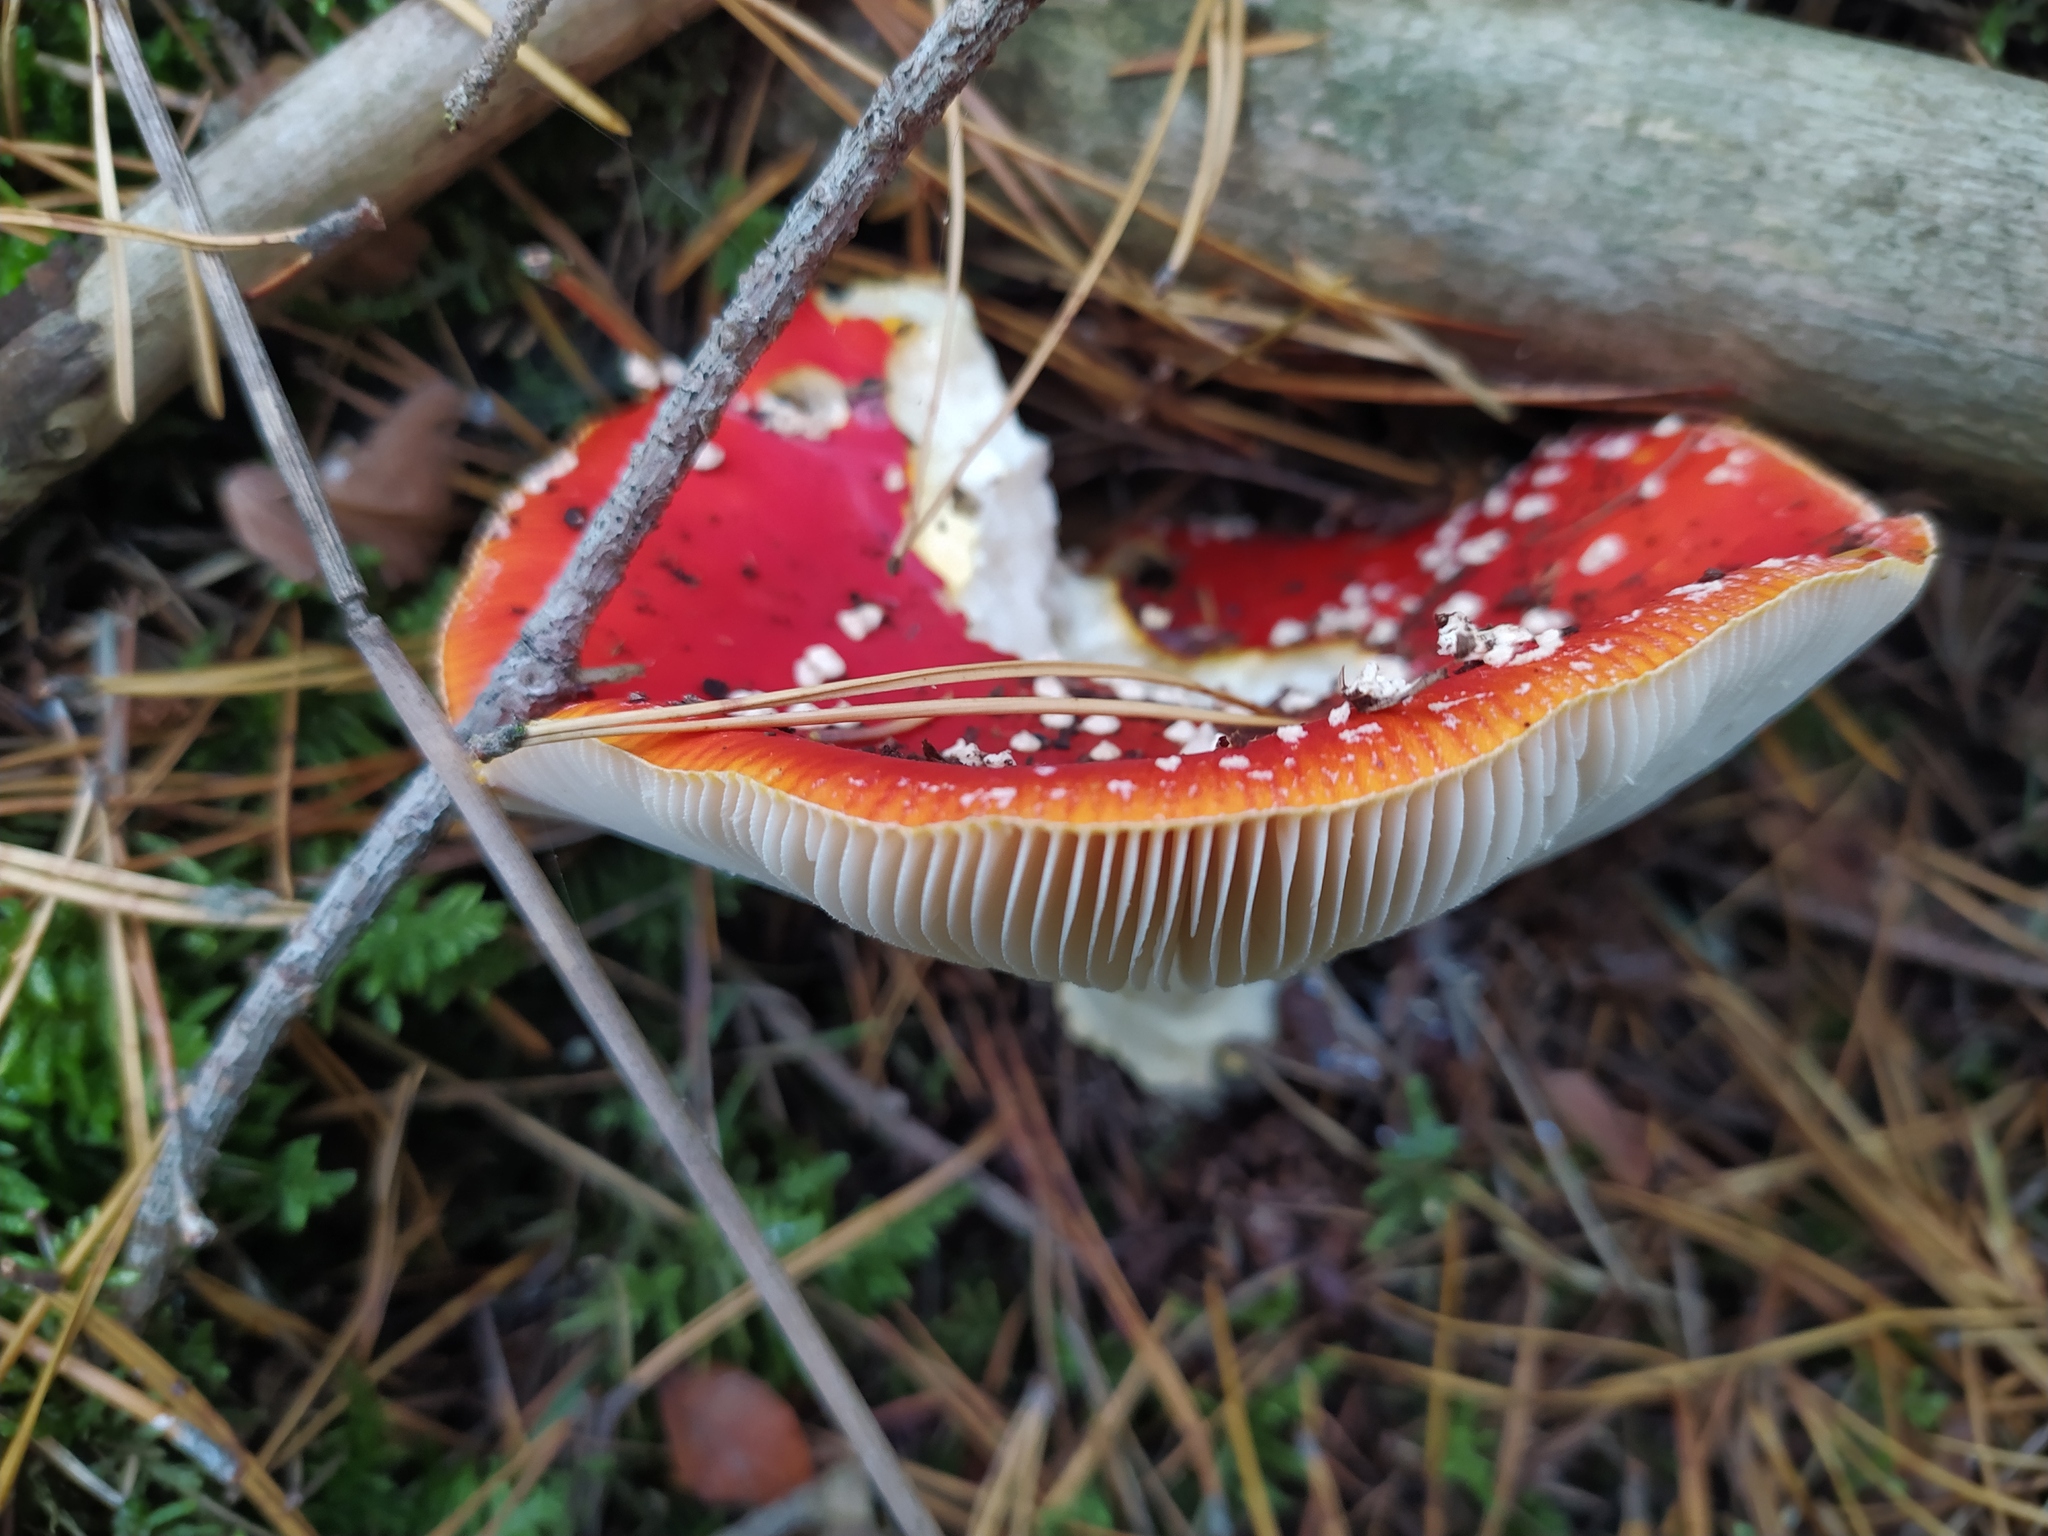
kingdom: Fungi
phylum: Basidiomycota
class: Agaricomycetes
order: Agaricales
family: Amanitaceae
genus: Amanita
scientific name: Amanita muscaria
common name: Fly agaric
